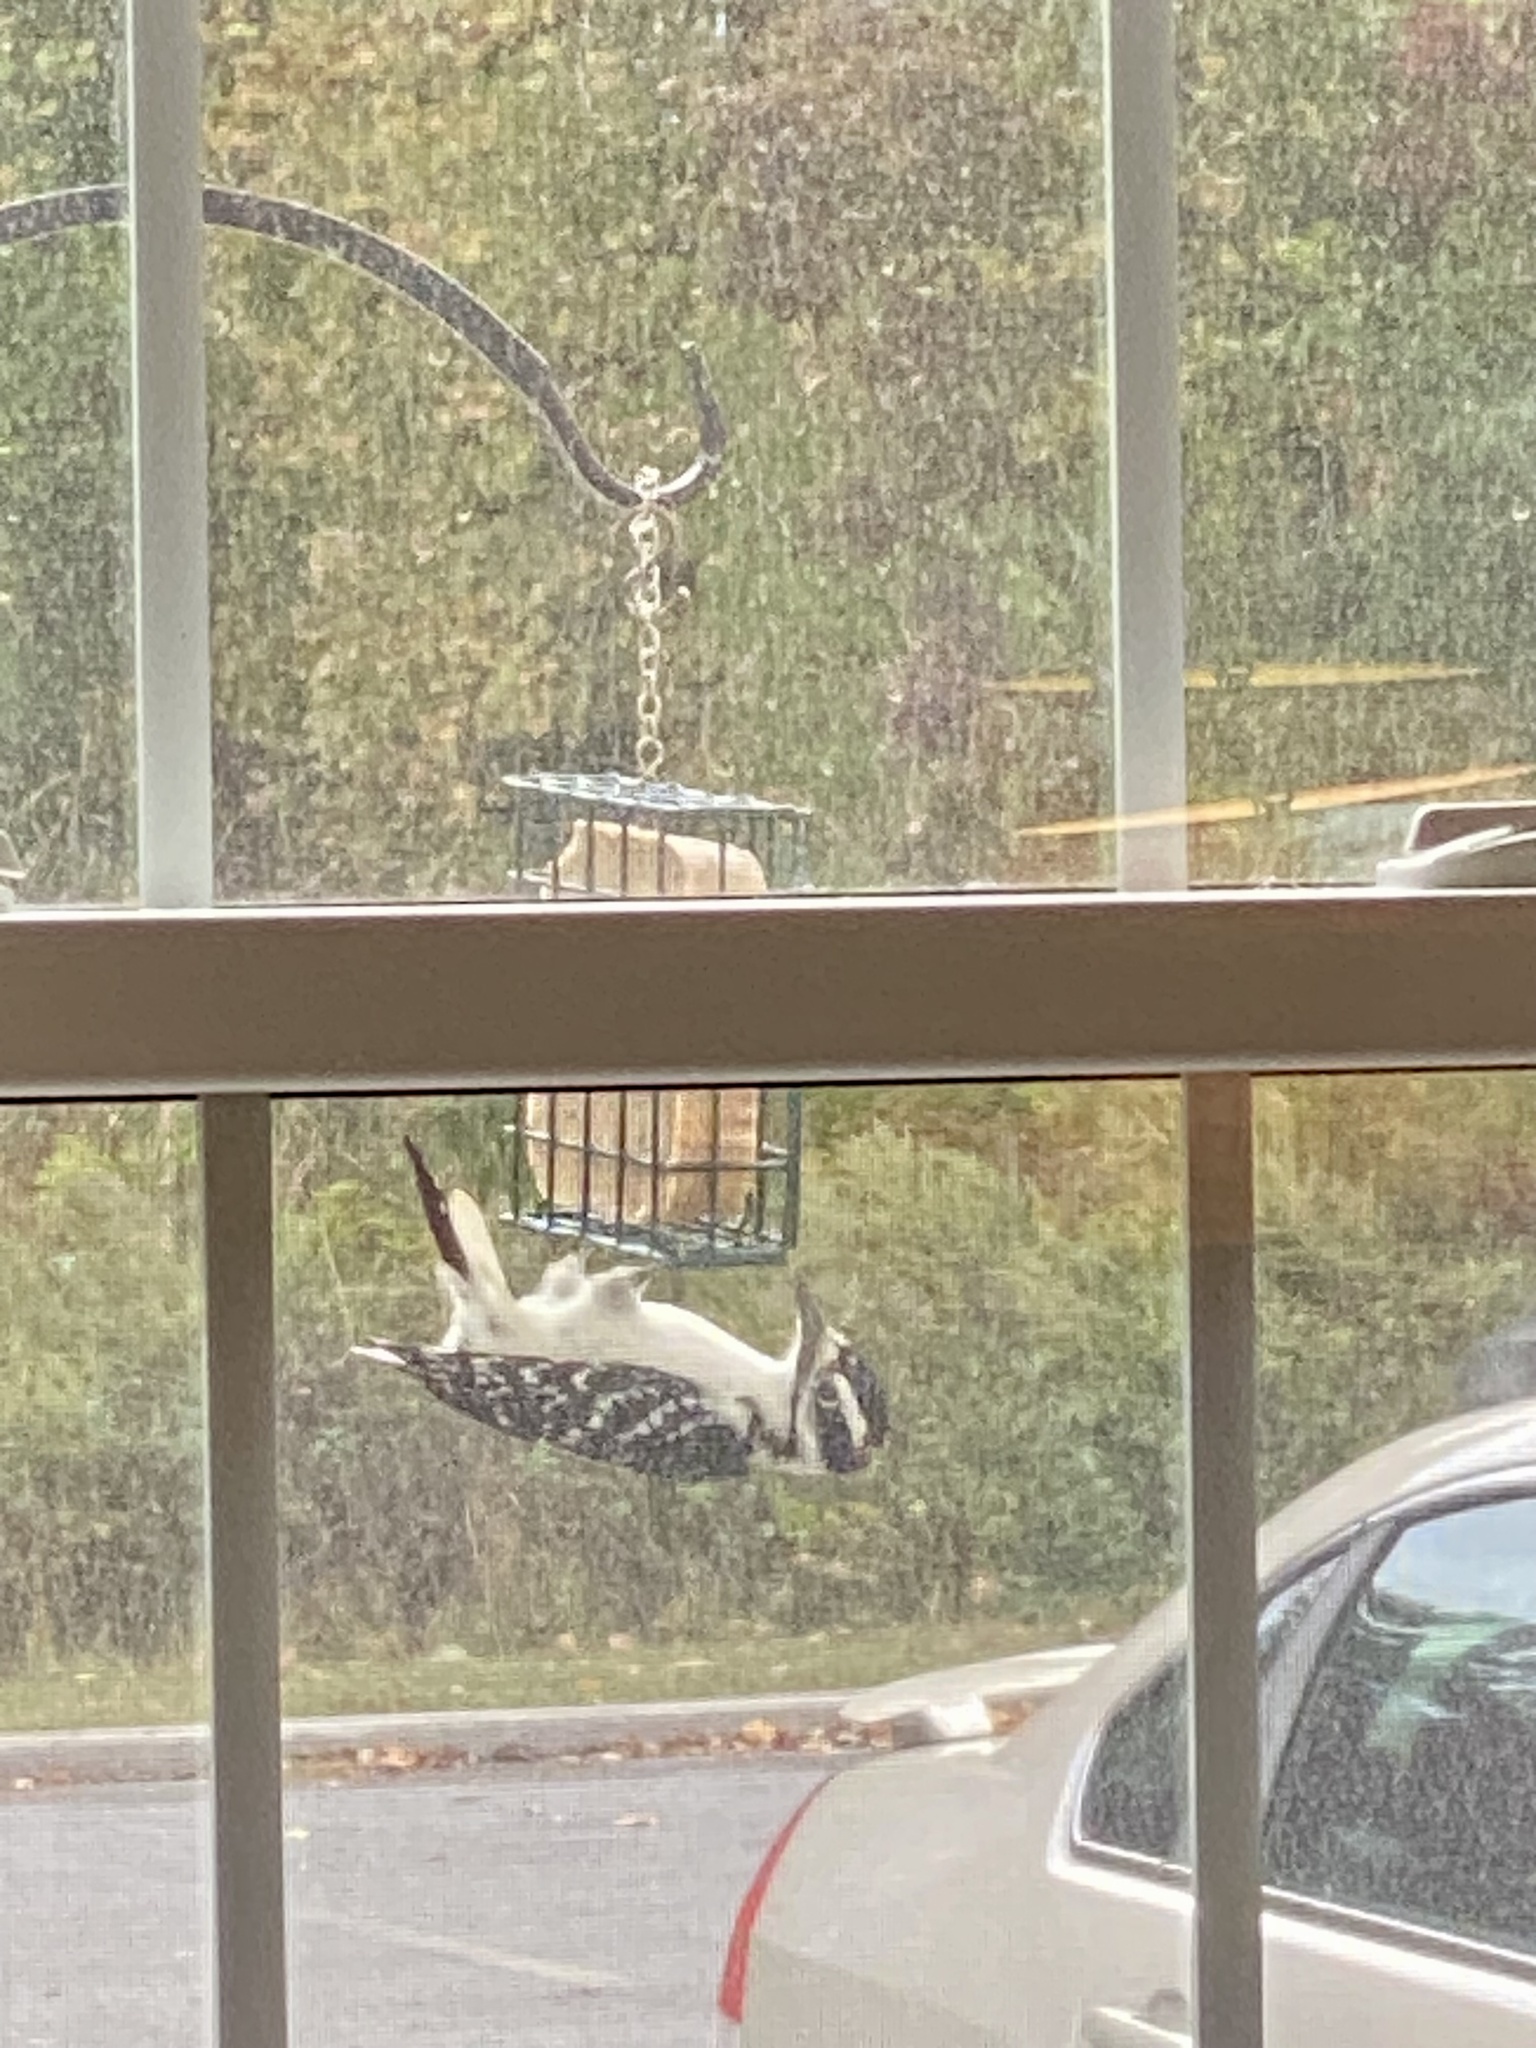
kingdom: Animalia
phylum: Chordata
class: Aves
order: Piciformes
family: Picidae
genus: Leuconotopicus
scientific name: Leuconotopicus villosus
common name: Hairy woodpecker
